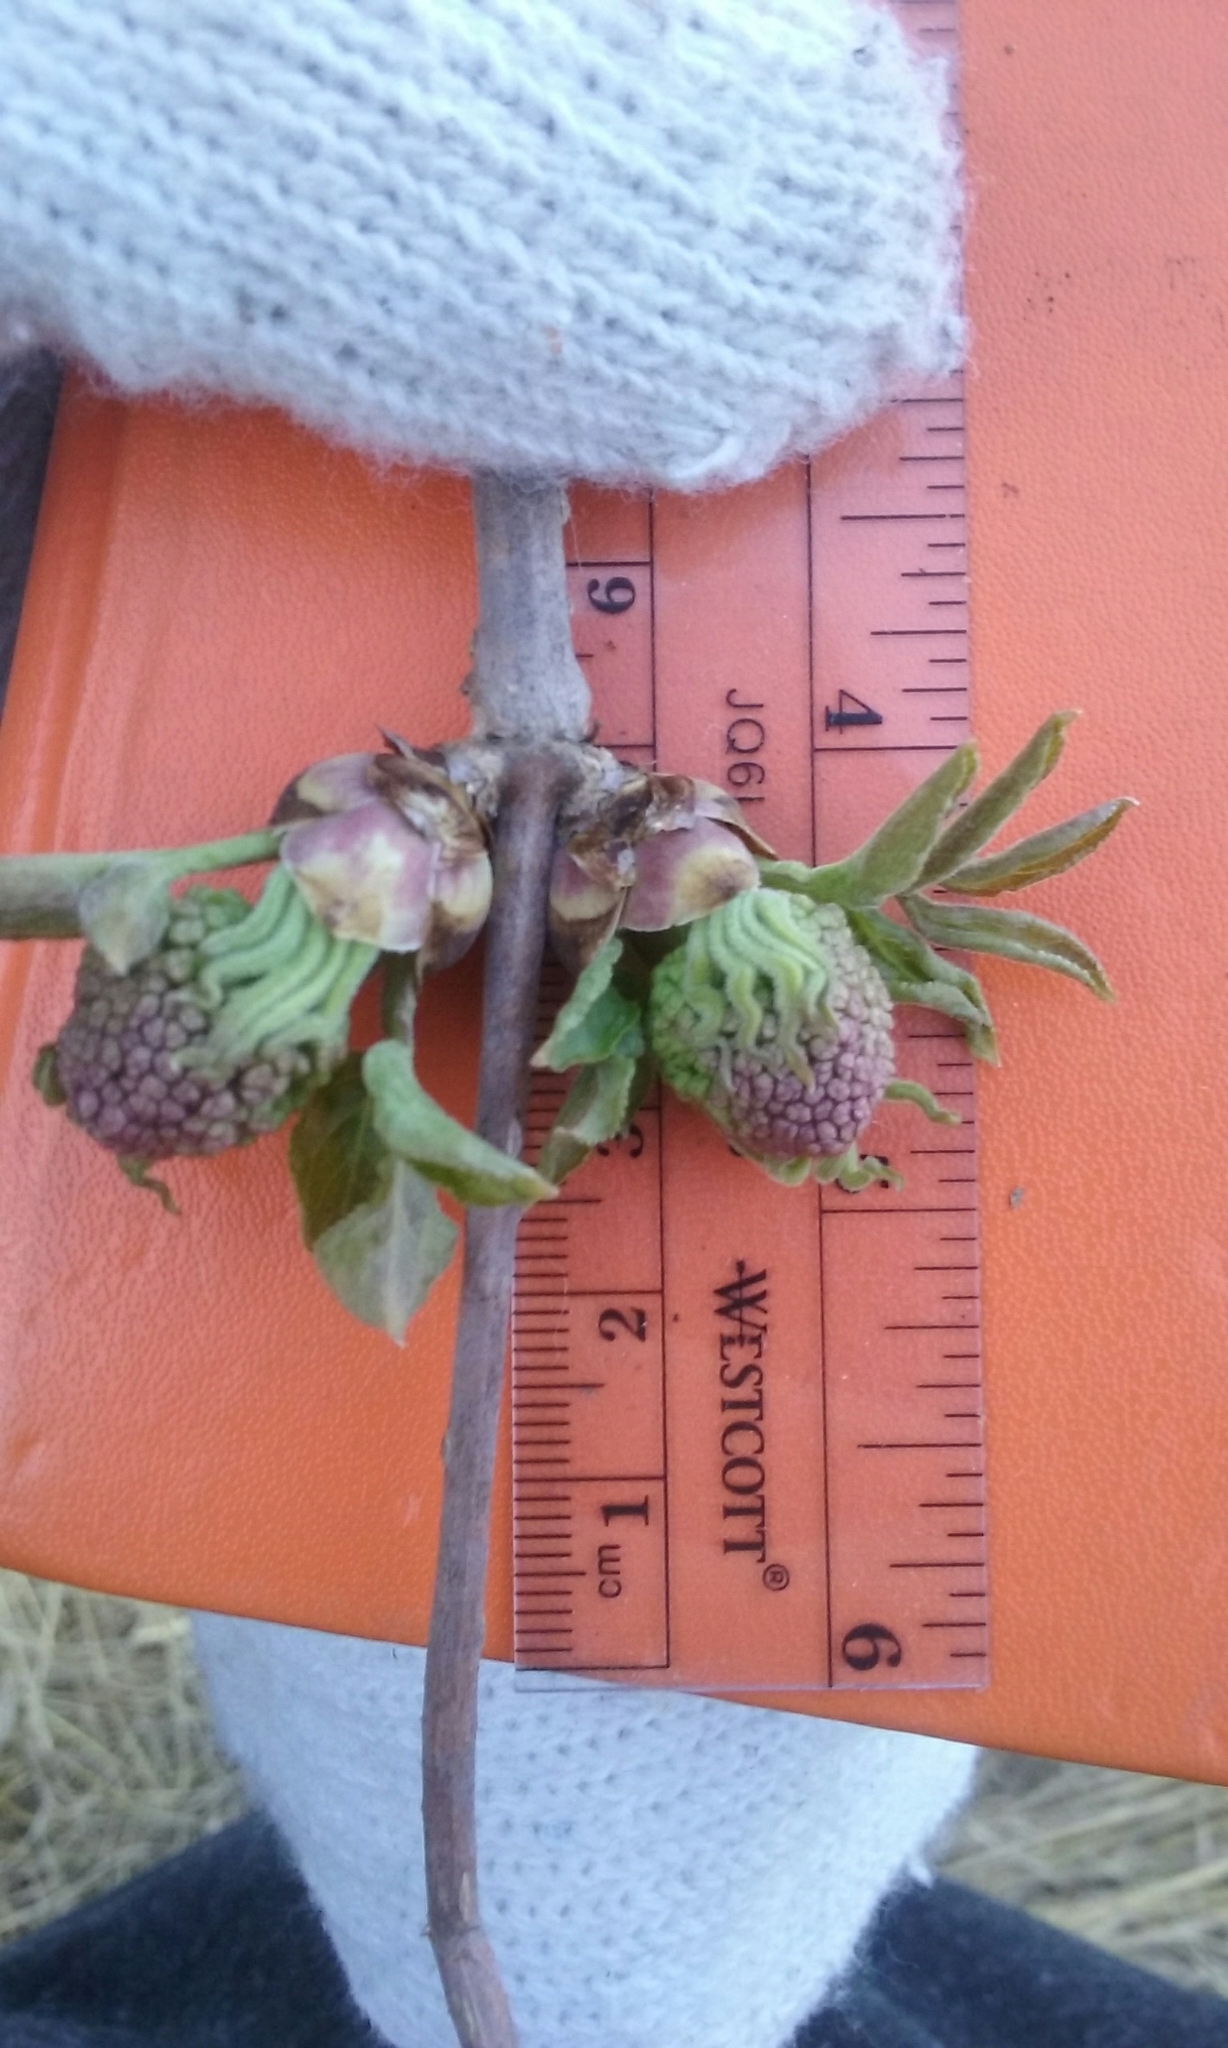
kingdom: Plantae
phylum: Tracheophyta
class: Magnoliopsida
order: Dipsacales
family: Viburnaceae
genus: Sambucus
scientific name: Sambucus racemosa
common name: Red-berried elder
